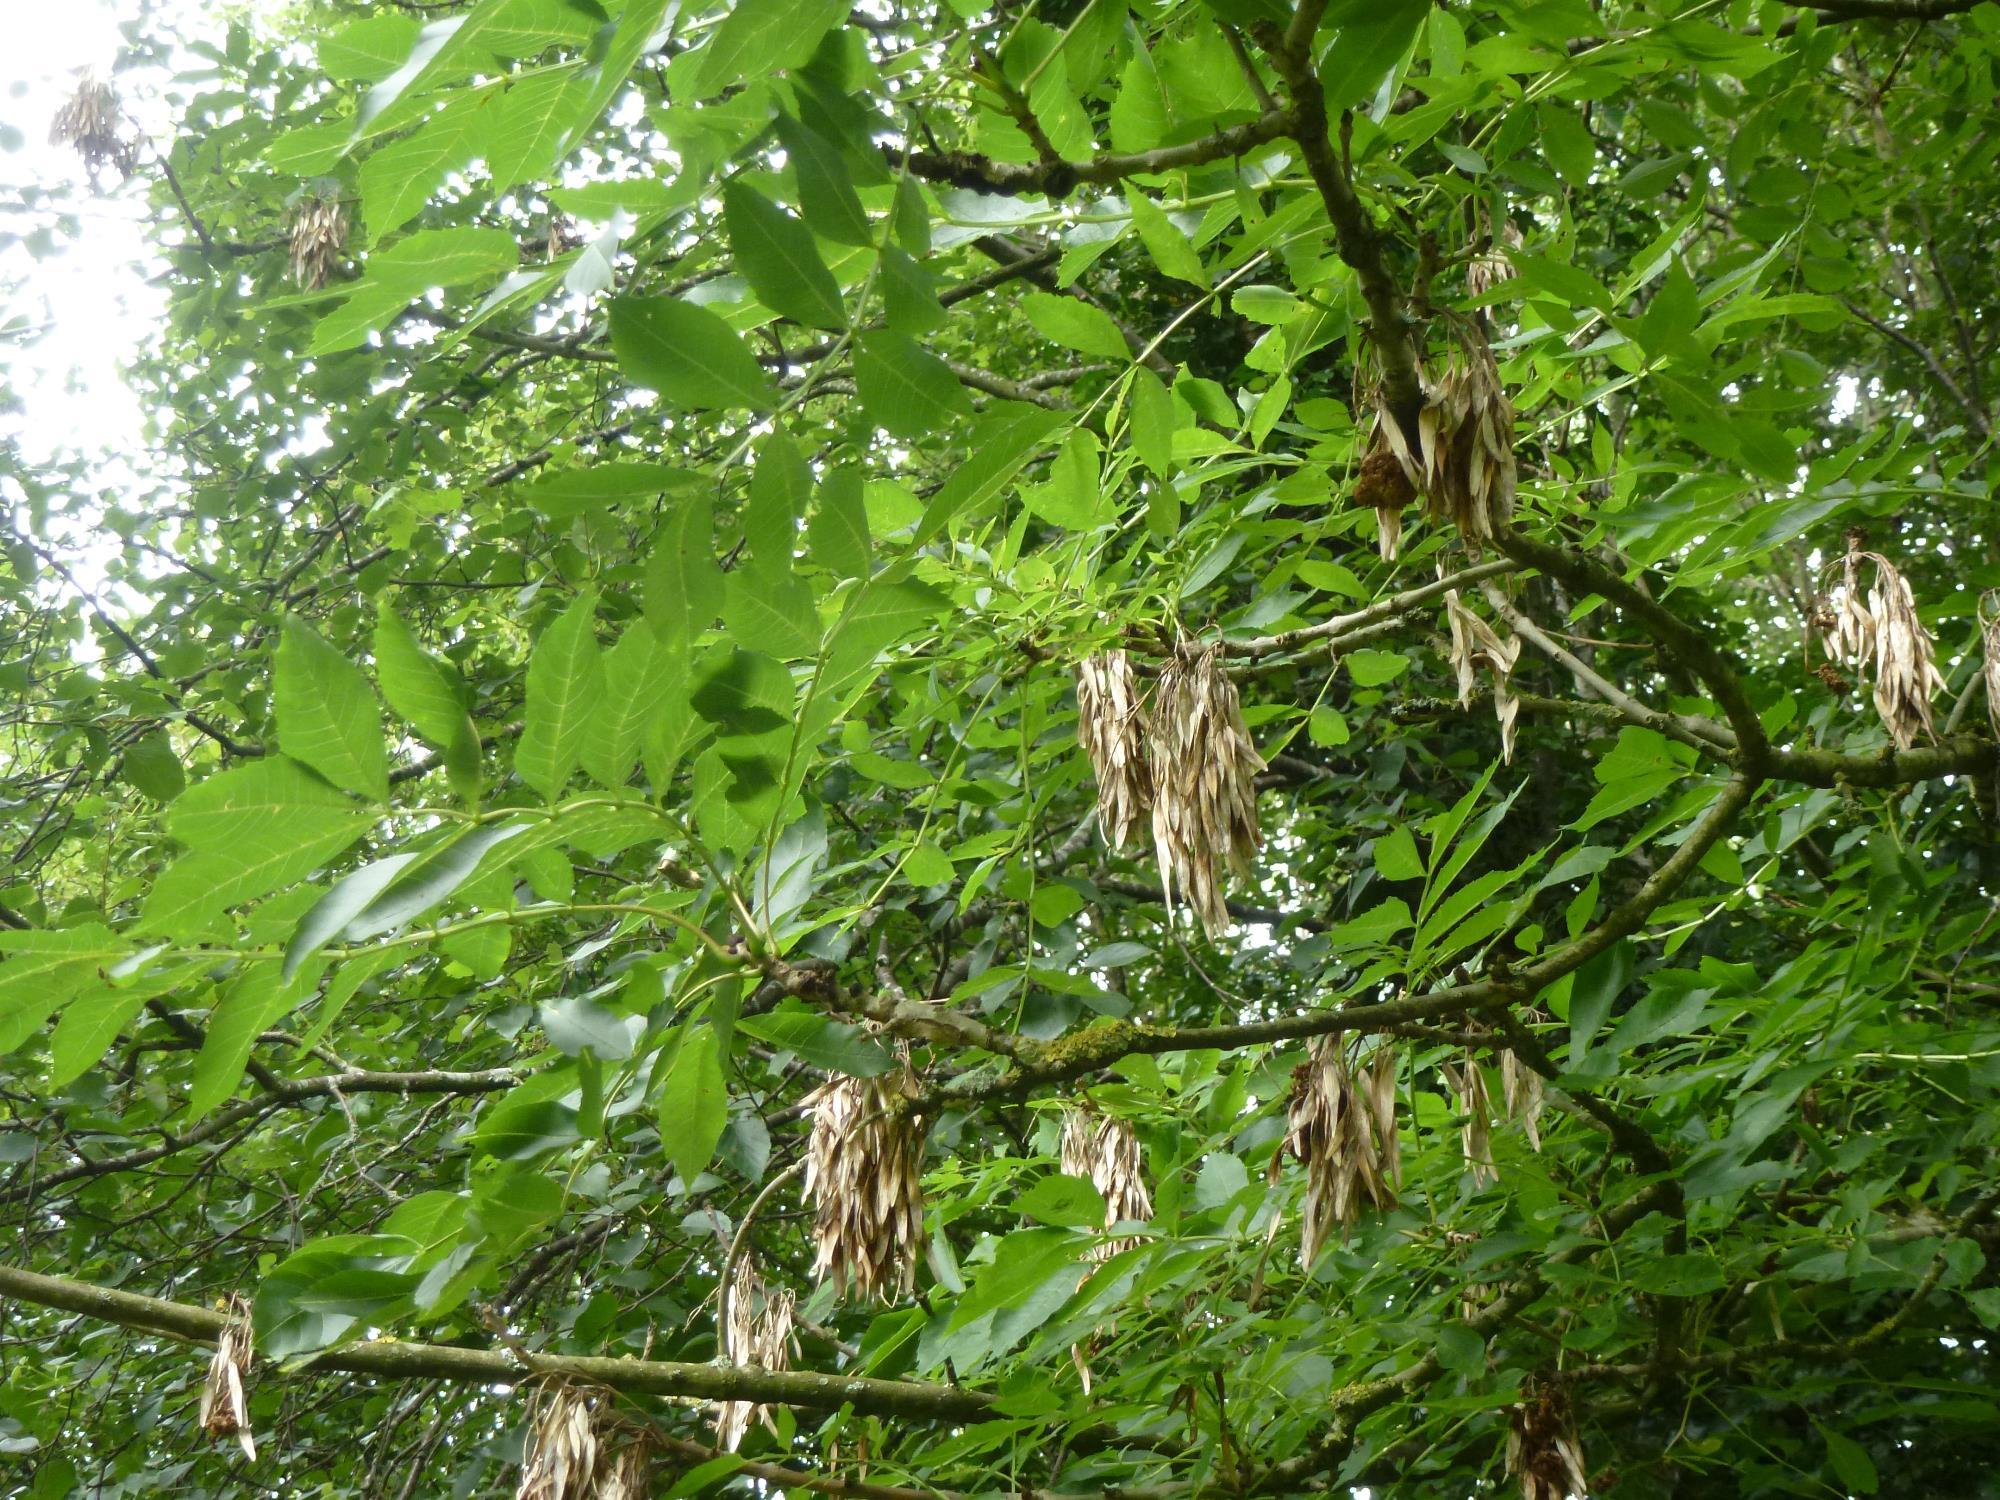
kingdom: Plantae
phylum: Tracheophyta
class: Magnoliopsida
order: Lamiales
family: Oleaceae
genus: Fraxinus
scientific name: Fraxinus excelsior
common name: European ash
